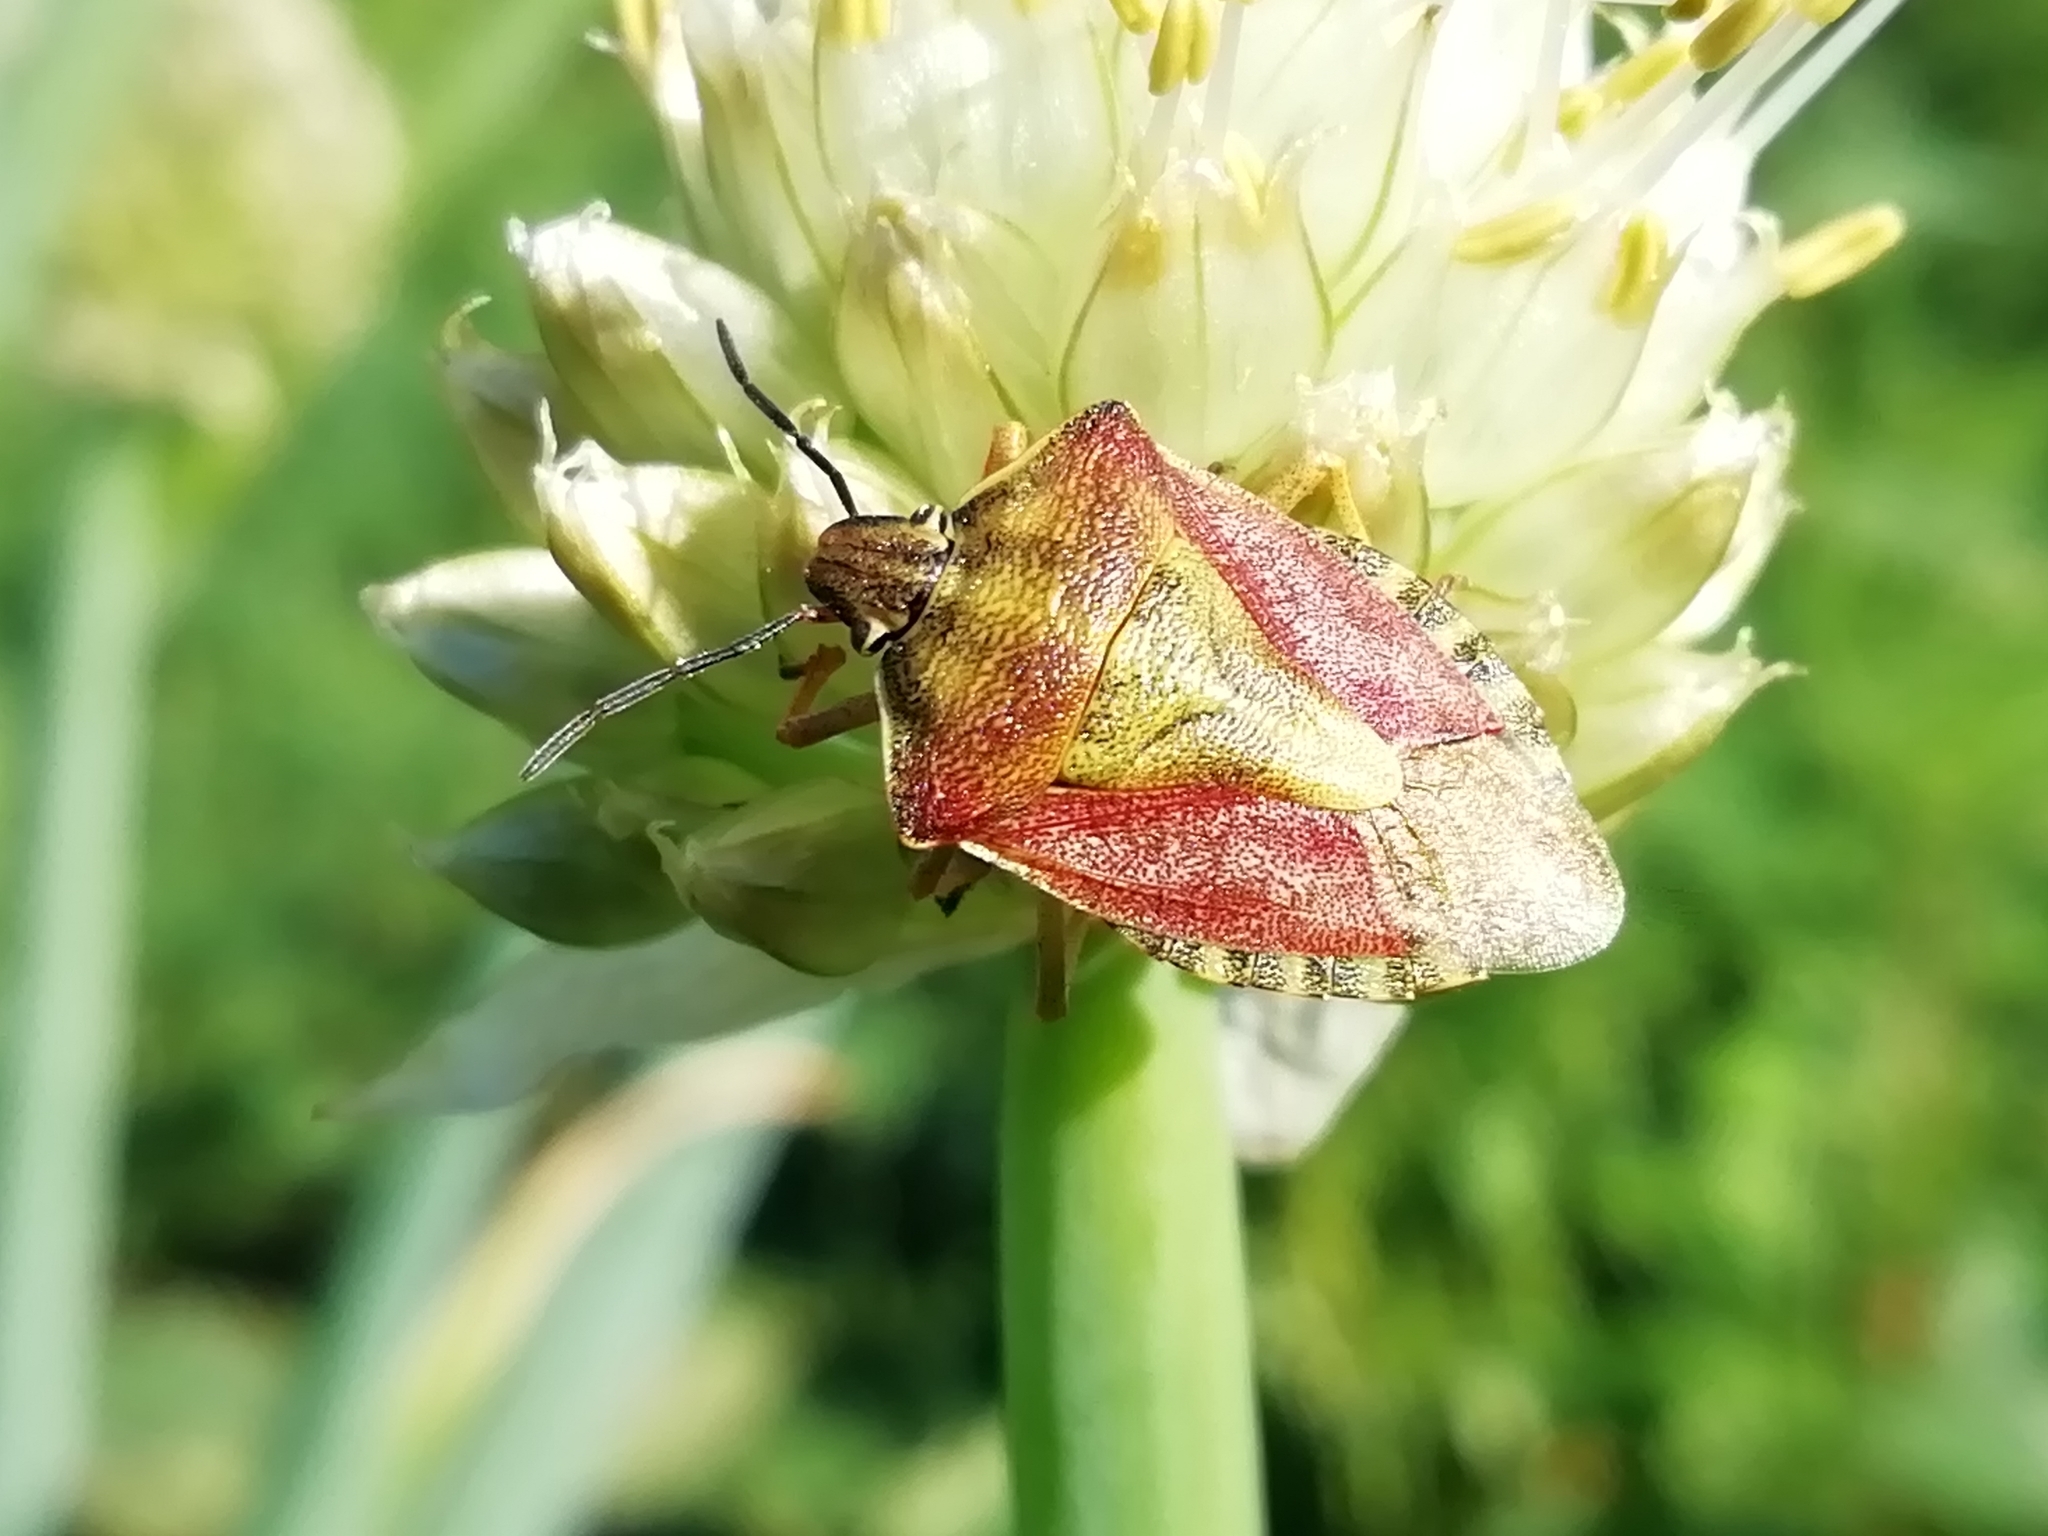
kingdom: Animalia
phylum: Arthropoda
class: Insecta
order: Hemiptera
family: Pentatomidae
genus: Carpocoris
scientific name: Carpocoris purpureipennis
